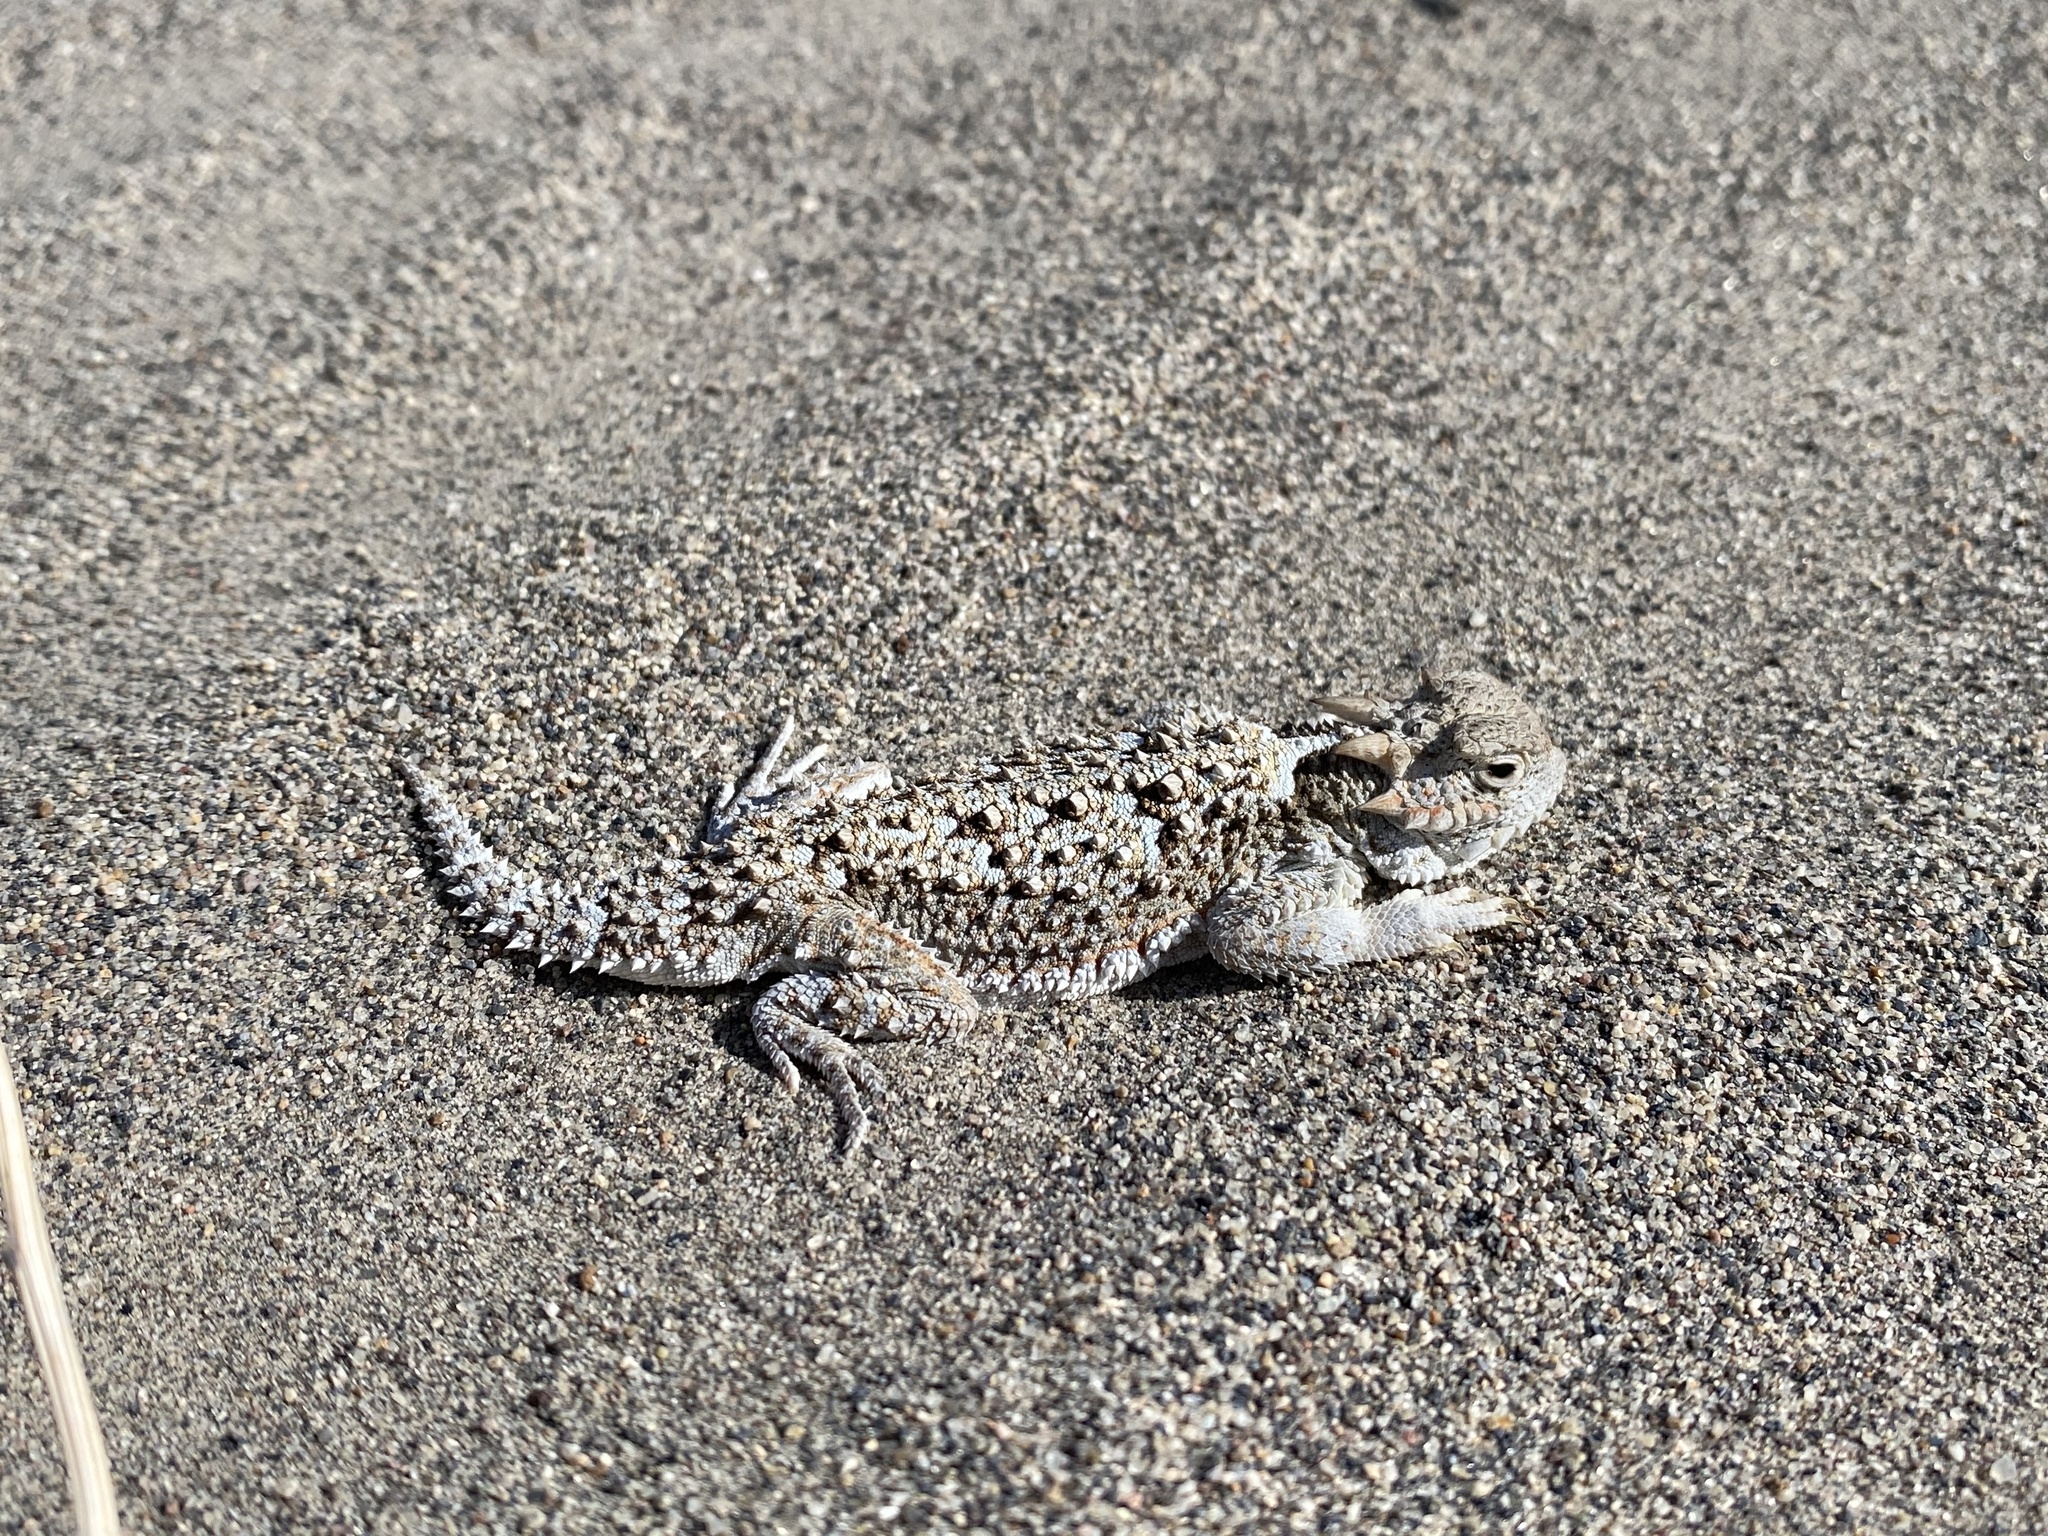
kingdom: Animalia
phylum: Chordata
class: Squamata
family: Phrynosomatidae
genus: Phrynosoma
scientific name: Phrynosoma platyrhinos
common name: Desert horned lizard
